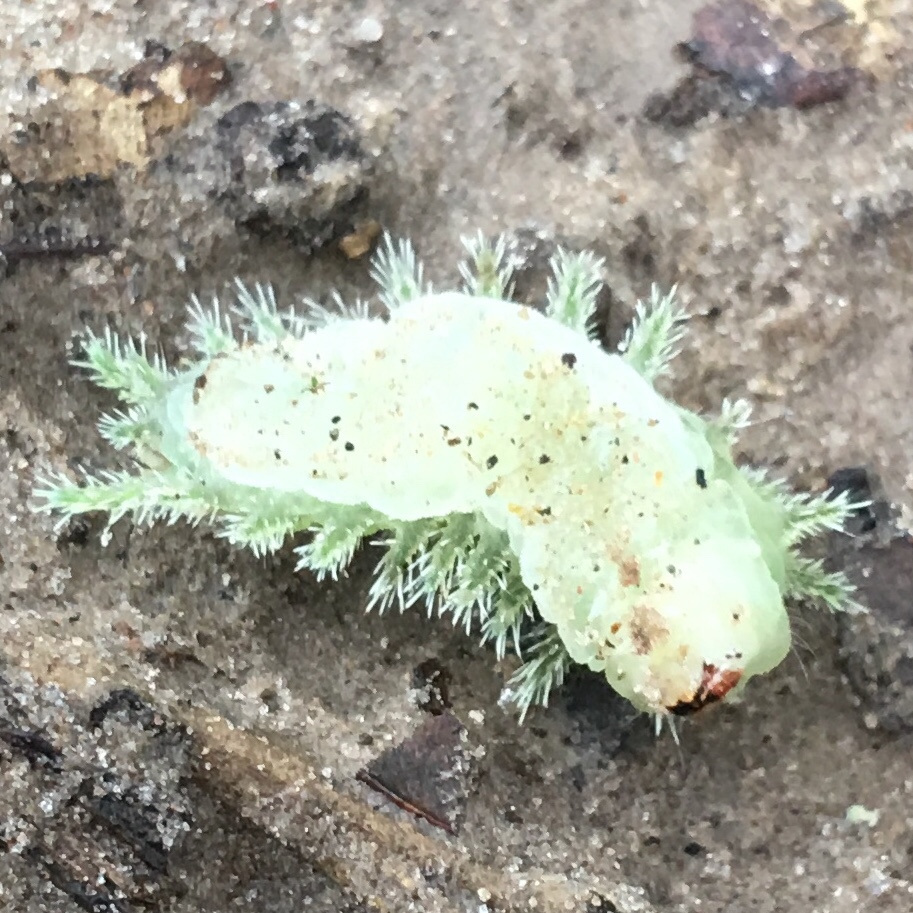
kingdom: Animalia
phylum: Arthropoda
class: Insecta
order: Lepidoptera
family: Limacodidae
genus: Euclea
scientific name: Euclea delphinii
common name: Spiny oak-slug moth
